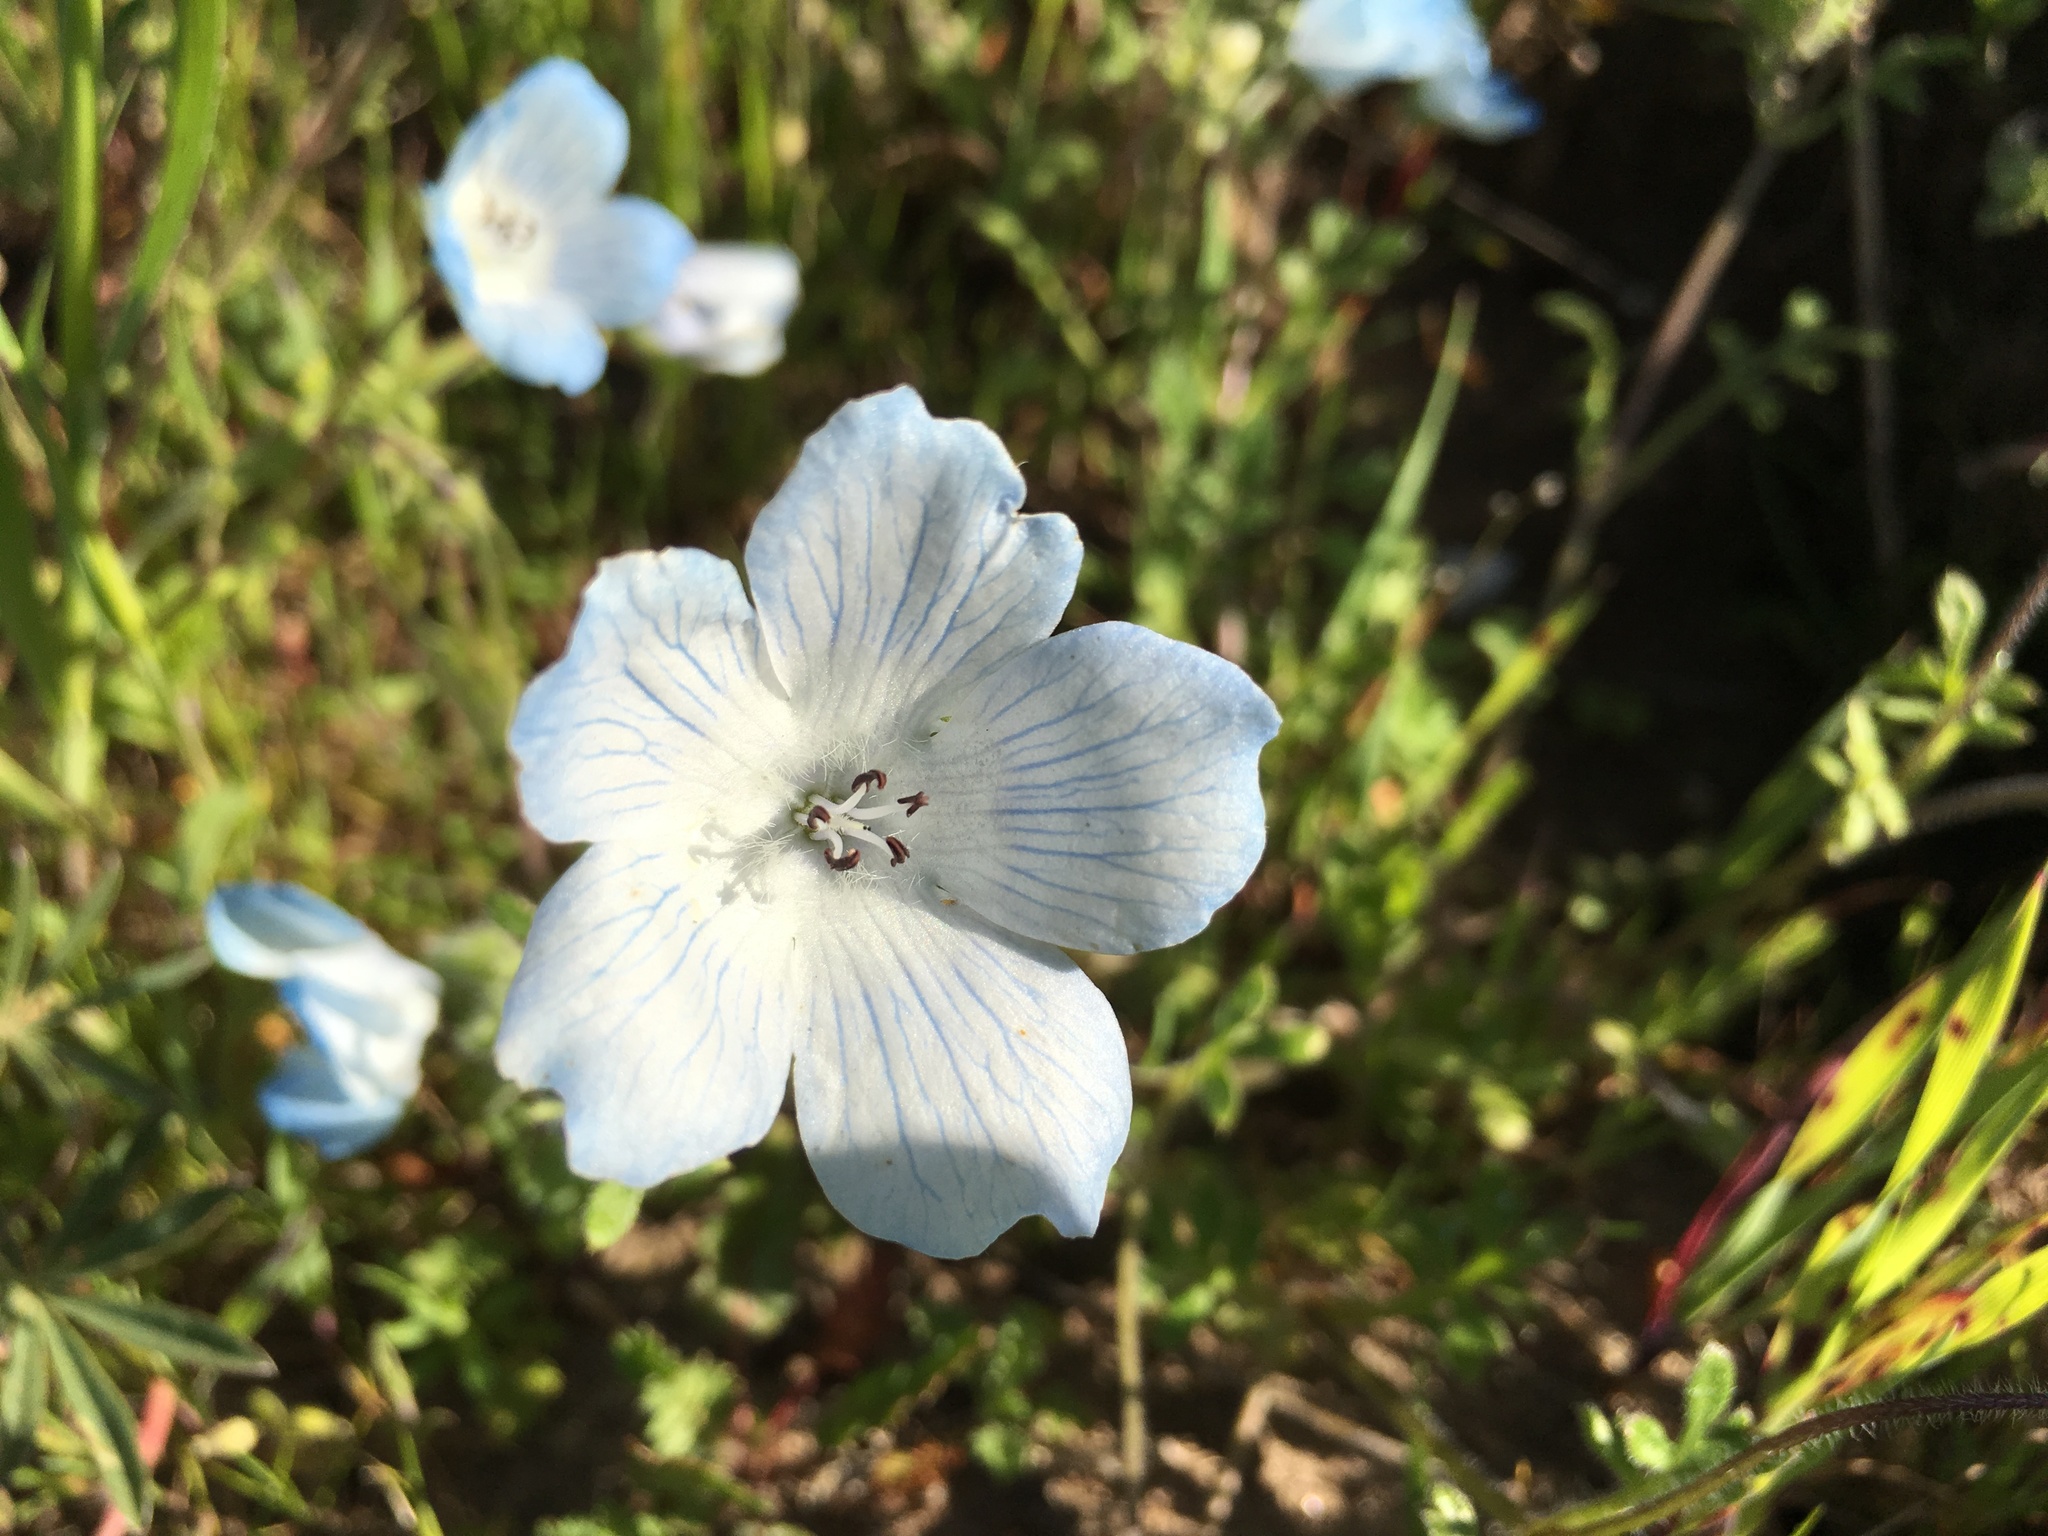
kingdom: Plantae
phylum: Tracheophyta
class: Magnoliopsida
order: Boraginales
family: Hydrophyllaceae
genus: Nemophila
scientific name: Nemophila menziesii
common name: Baby's-blue-eyes
